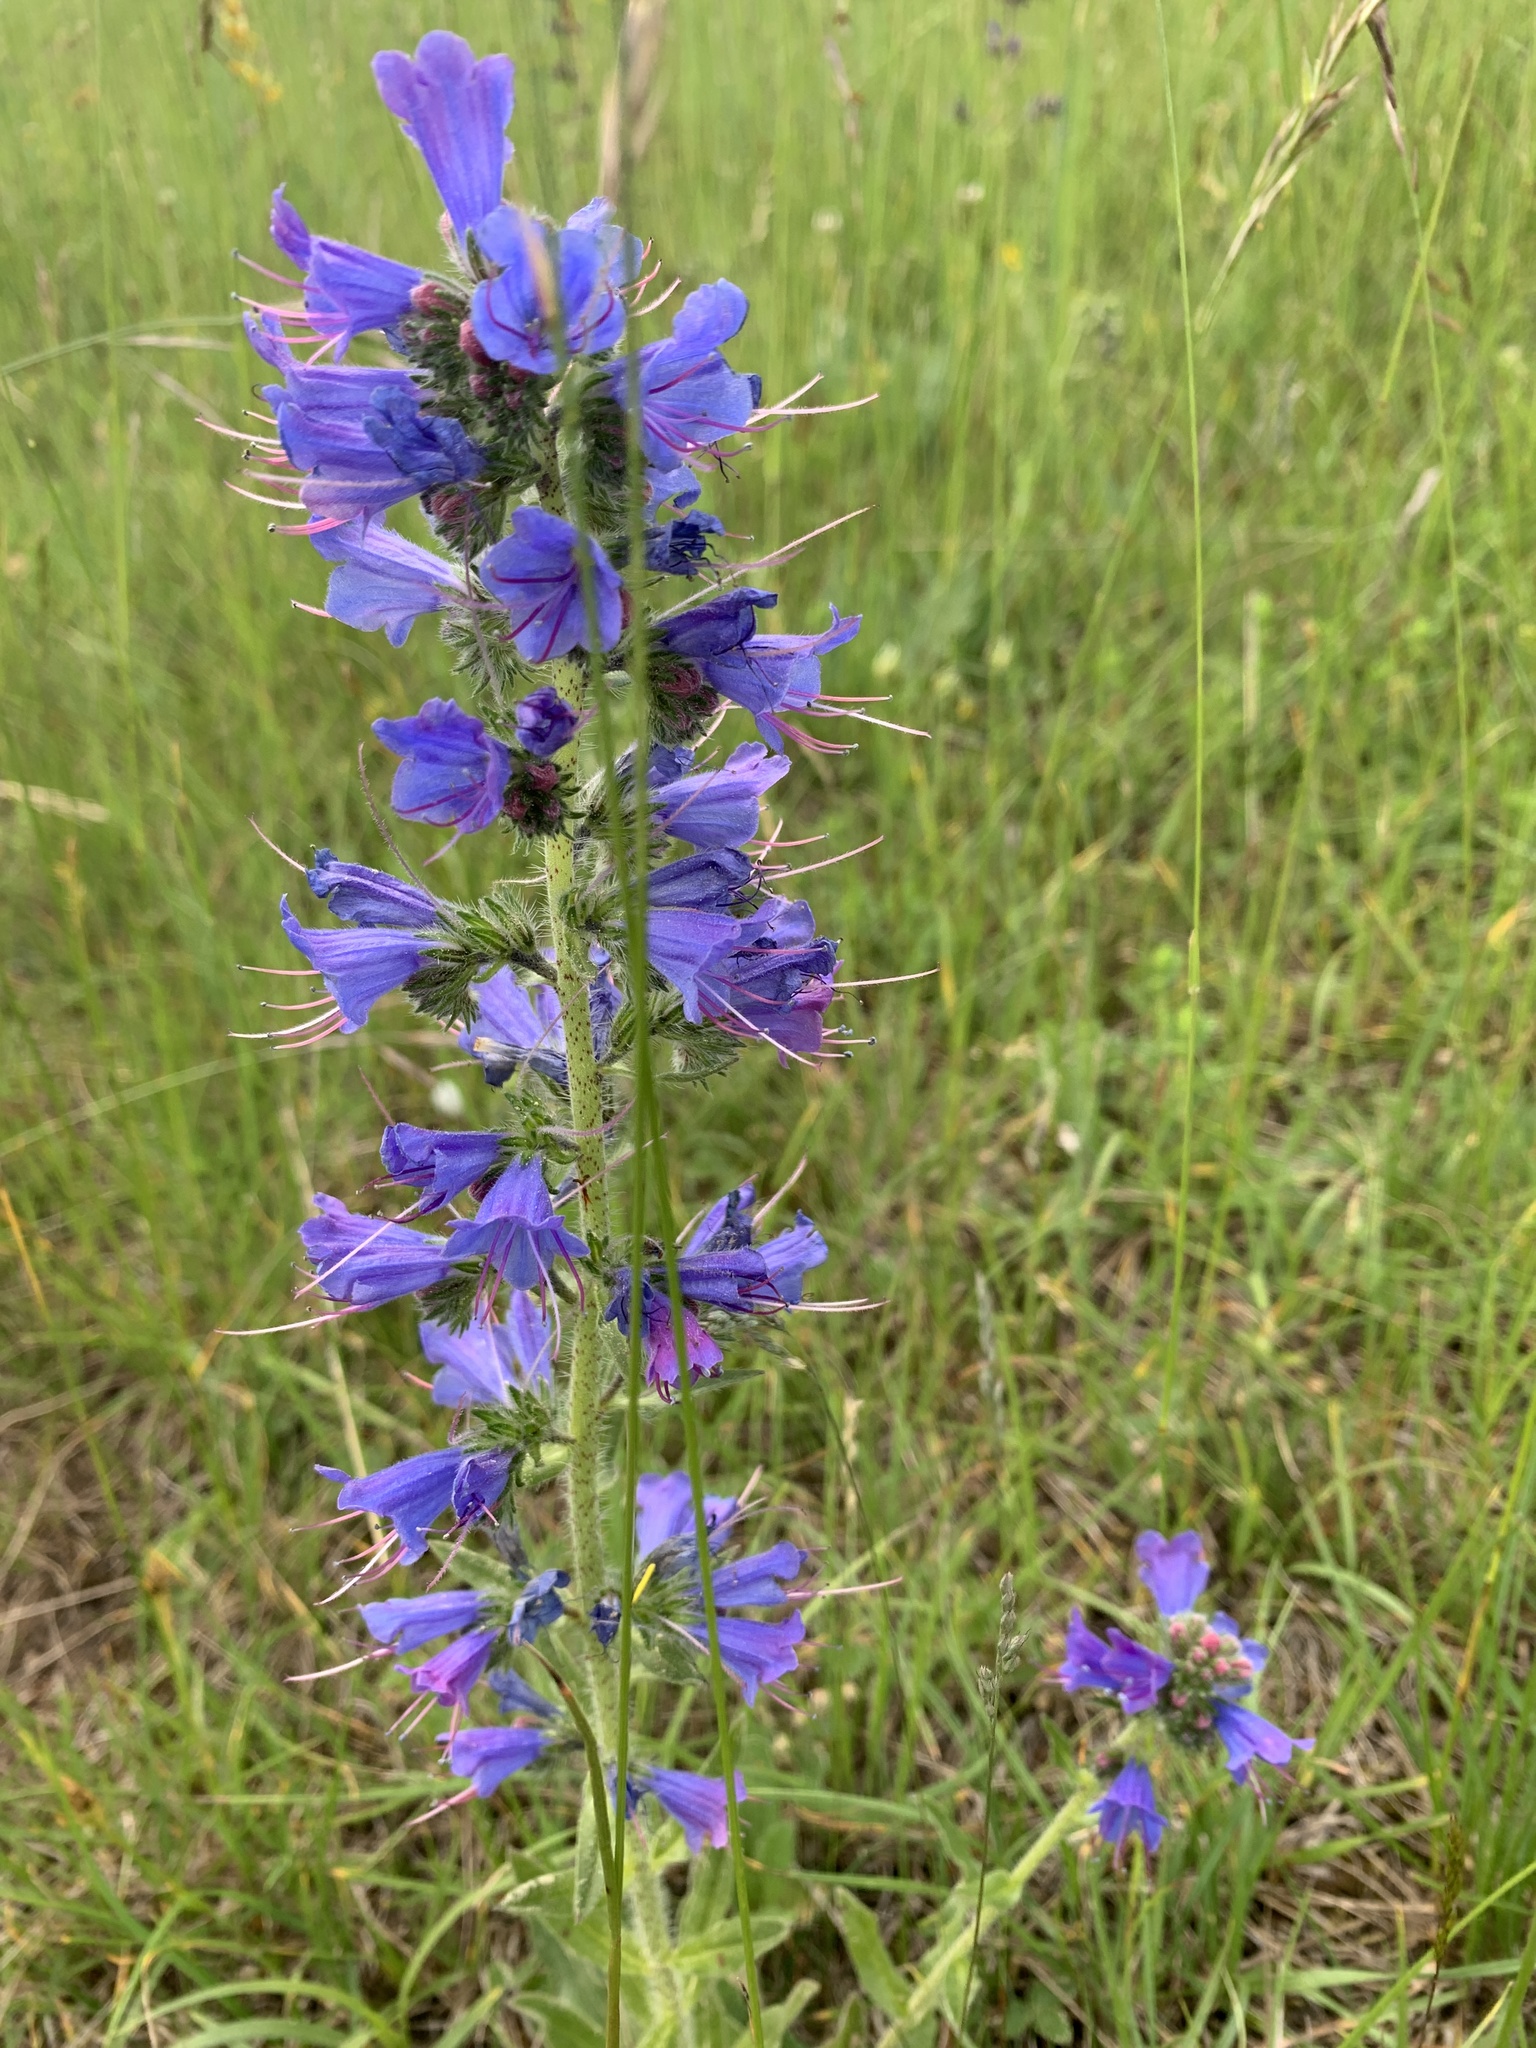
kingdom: Plantae
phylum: Tracheophyta
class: Magnoliopsida
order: Boraginales
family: Boraginaceae
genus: Echium
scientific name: Echium vulgare
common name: Common viper's bugloss
